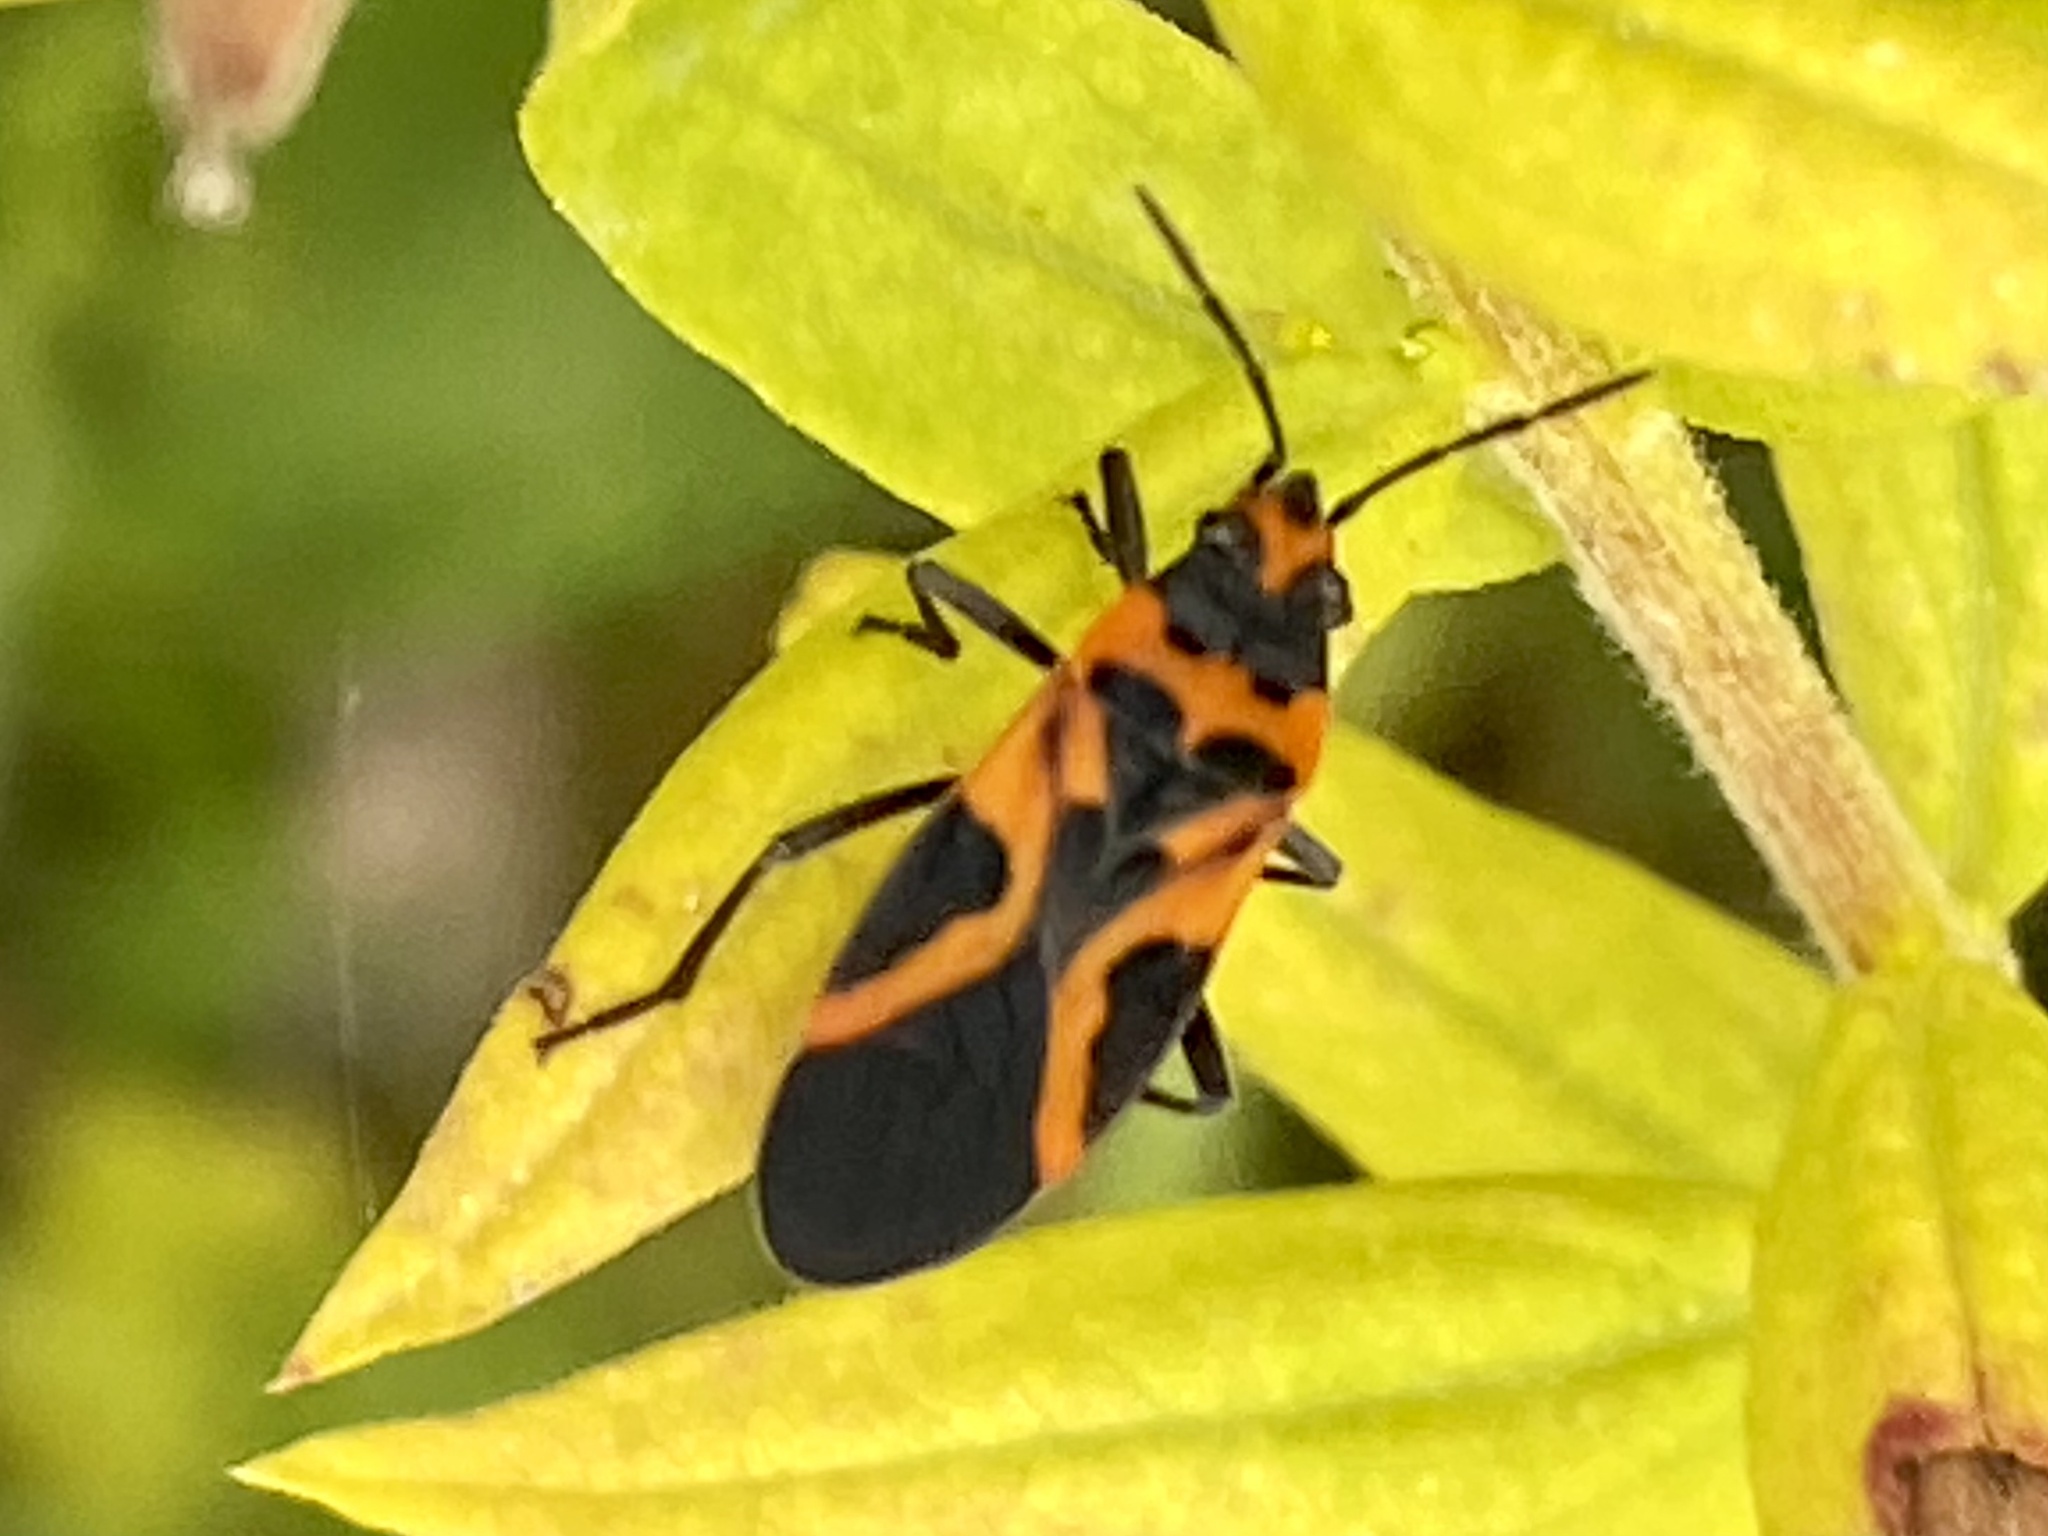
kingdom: Animalia
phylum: Arthropoda
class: Insecta
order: Hemiptera
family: Lygaeidae
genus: Lygaeus
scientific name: Lygaeus turcicus
